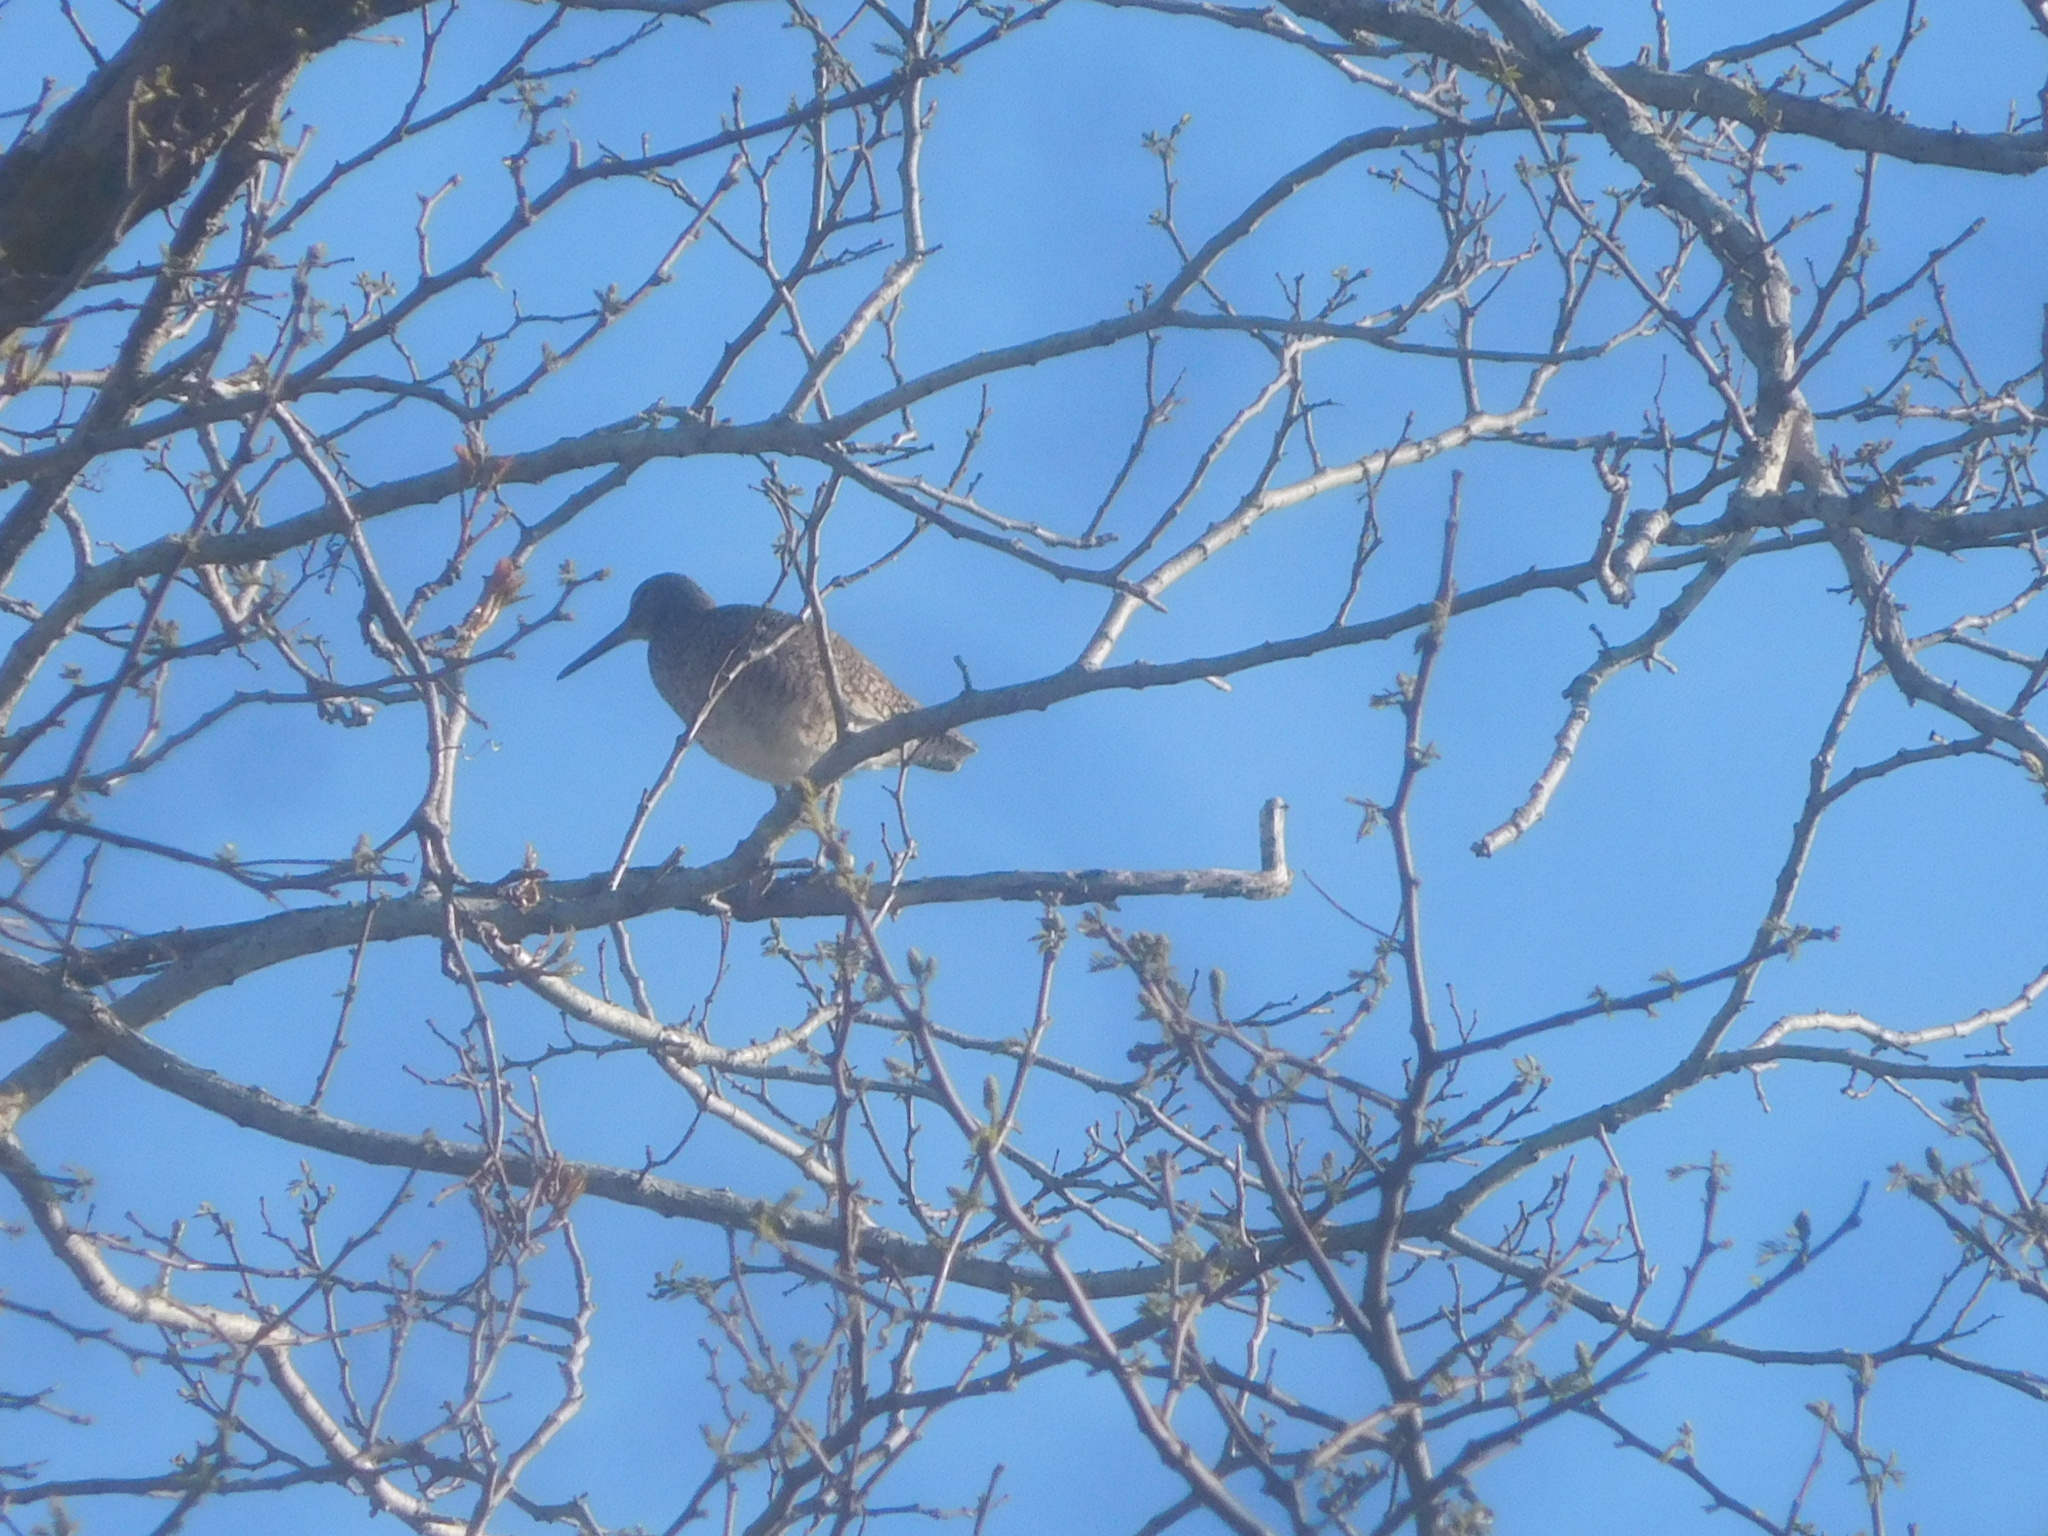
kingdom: Animalia
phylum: Chordata
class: Aves
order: Charadriiformes
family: Scolopacidae
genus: Tringa
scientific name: Tringa semipalmata
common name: Willet
